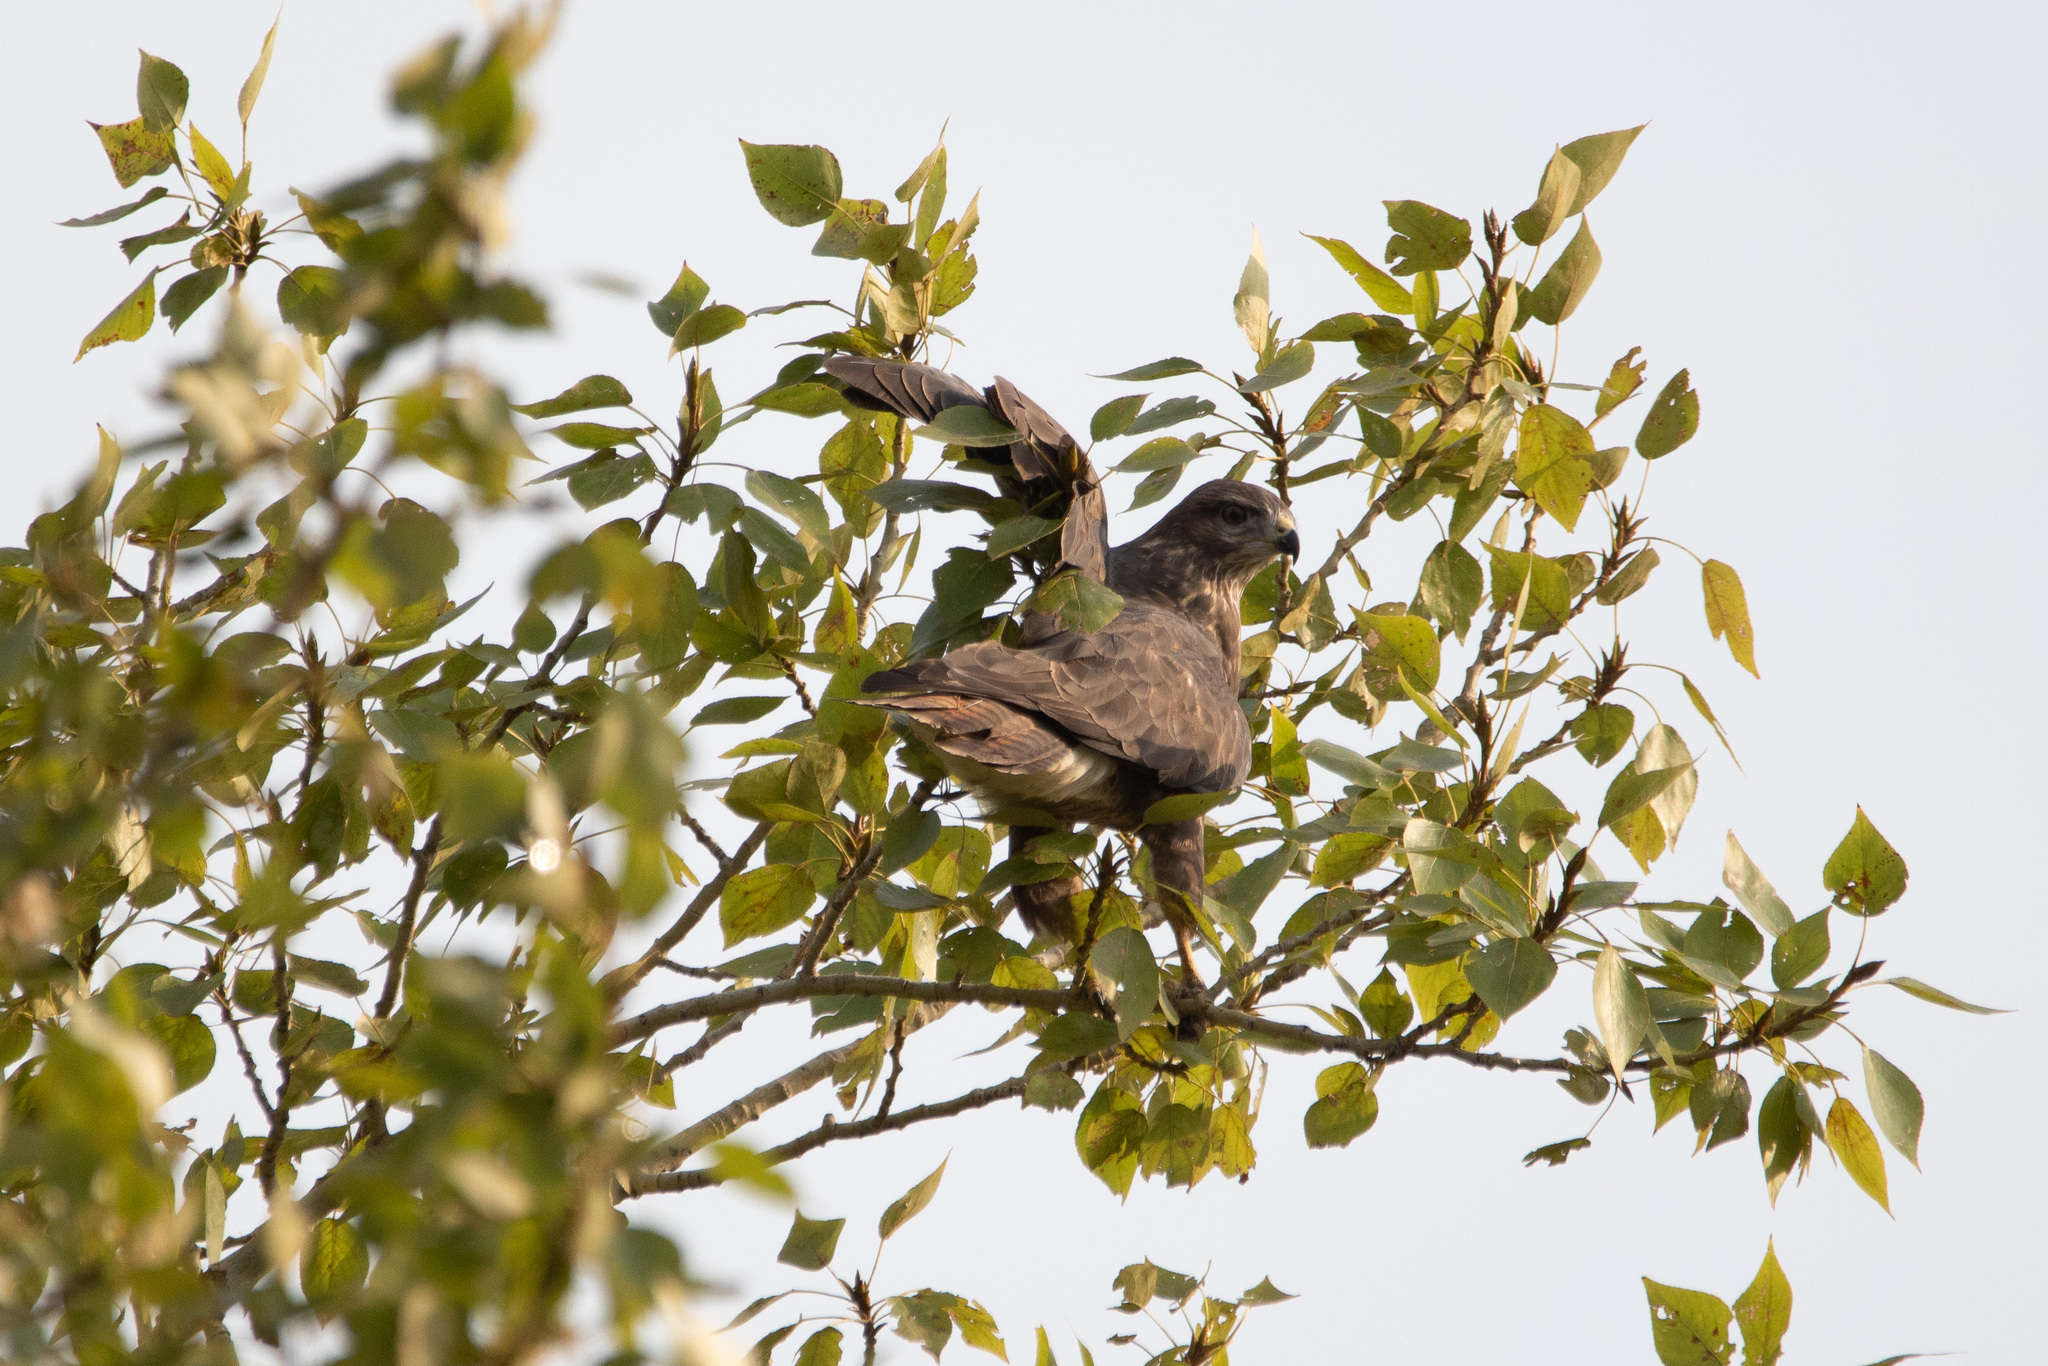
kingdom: Animalia
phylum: Chordata
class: Aves
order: Accipitriformes
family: Accipitridae
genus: Buteo
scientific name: Buteo buteo
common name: Common buzzard
